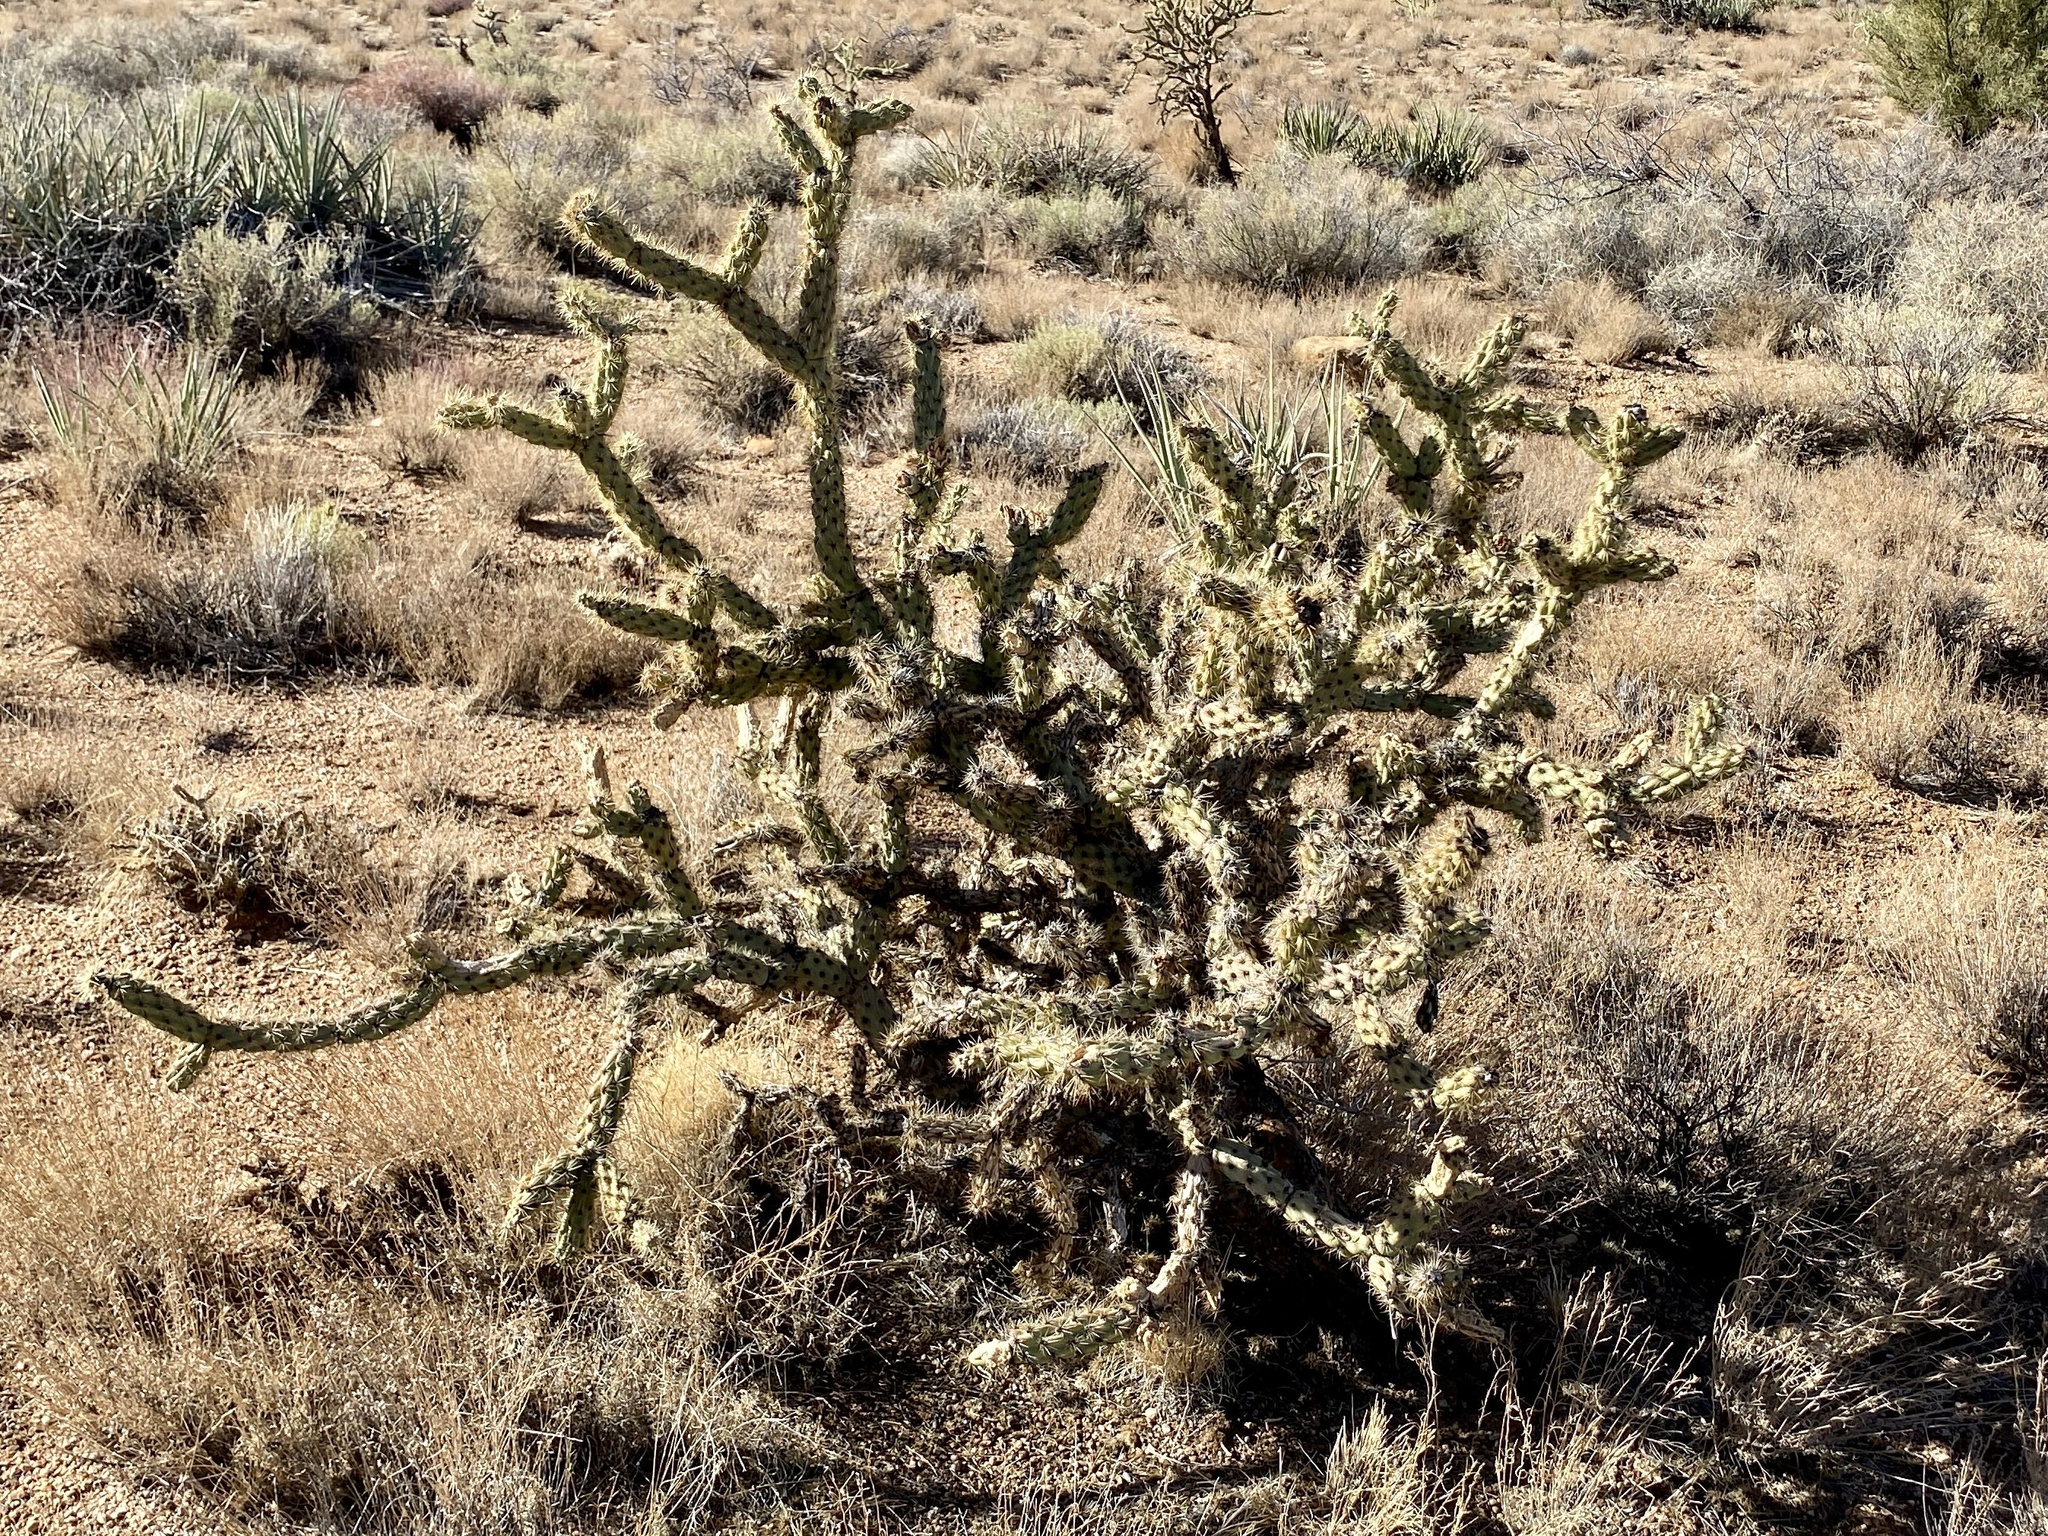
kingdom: Plantae
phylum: Tracheophyta
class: Magnoliopsida
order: Caryophyllales
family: Cactaceae
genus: Cylindropuntia
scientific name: Cylindropuntia acanthocarpa
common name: Buckhorn cholla
